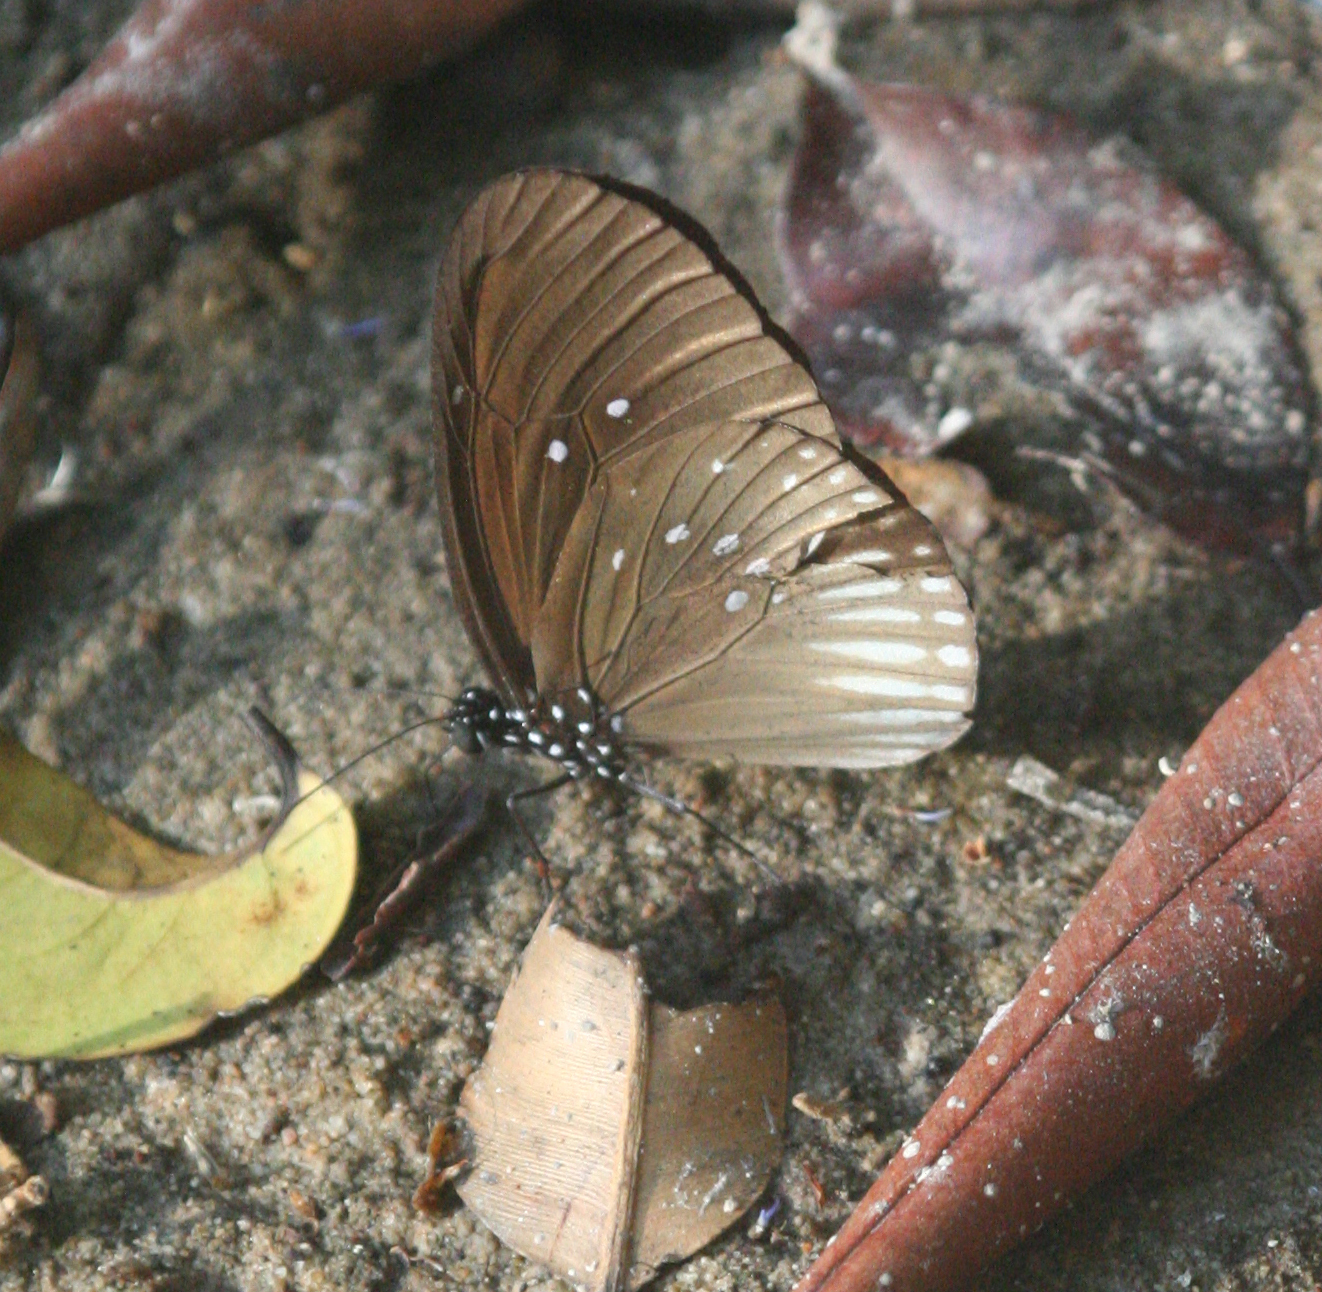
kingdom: Animalia
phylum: Arthropoda
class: Insecta
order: Lepidoptera
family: Nymphalidae
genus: Euploea
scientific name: Euploea doubledayi
